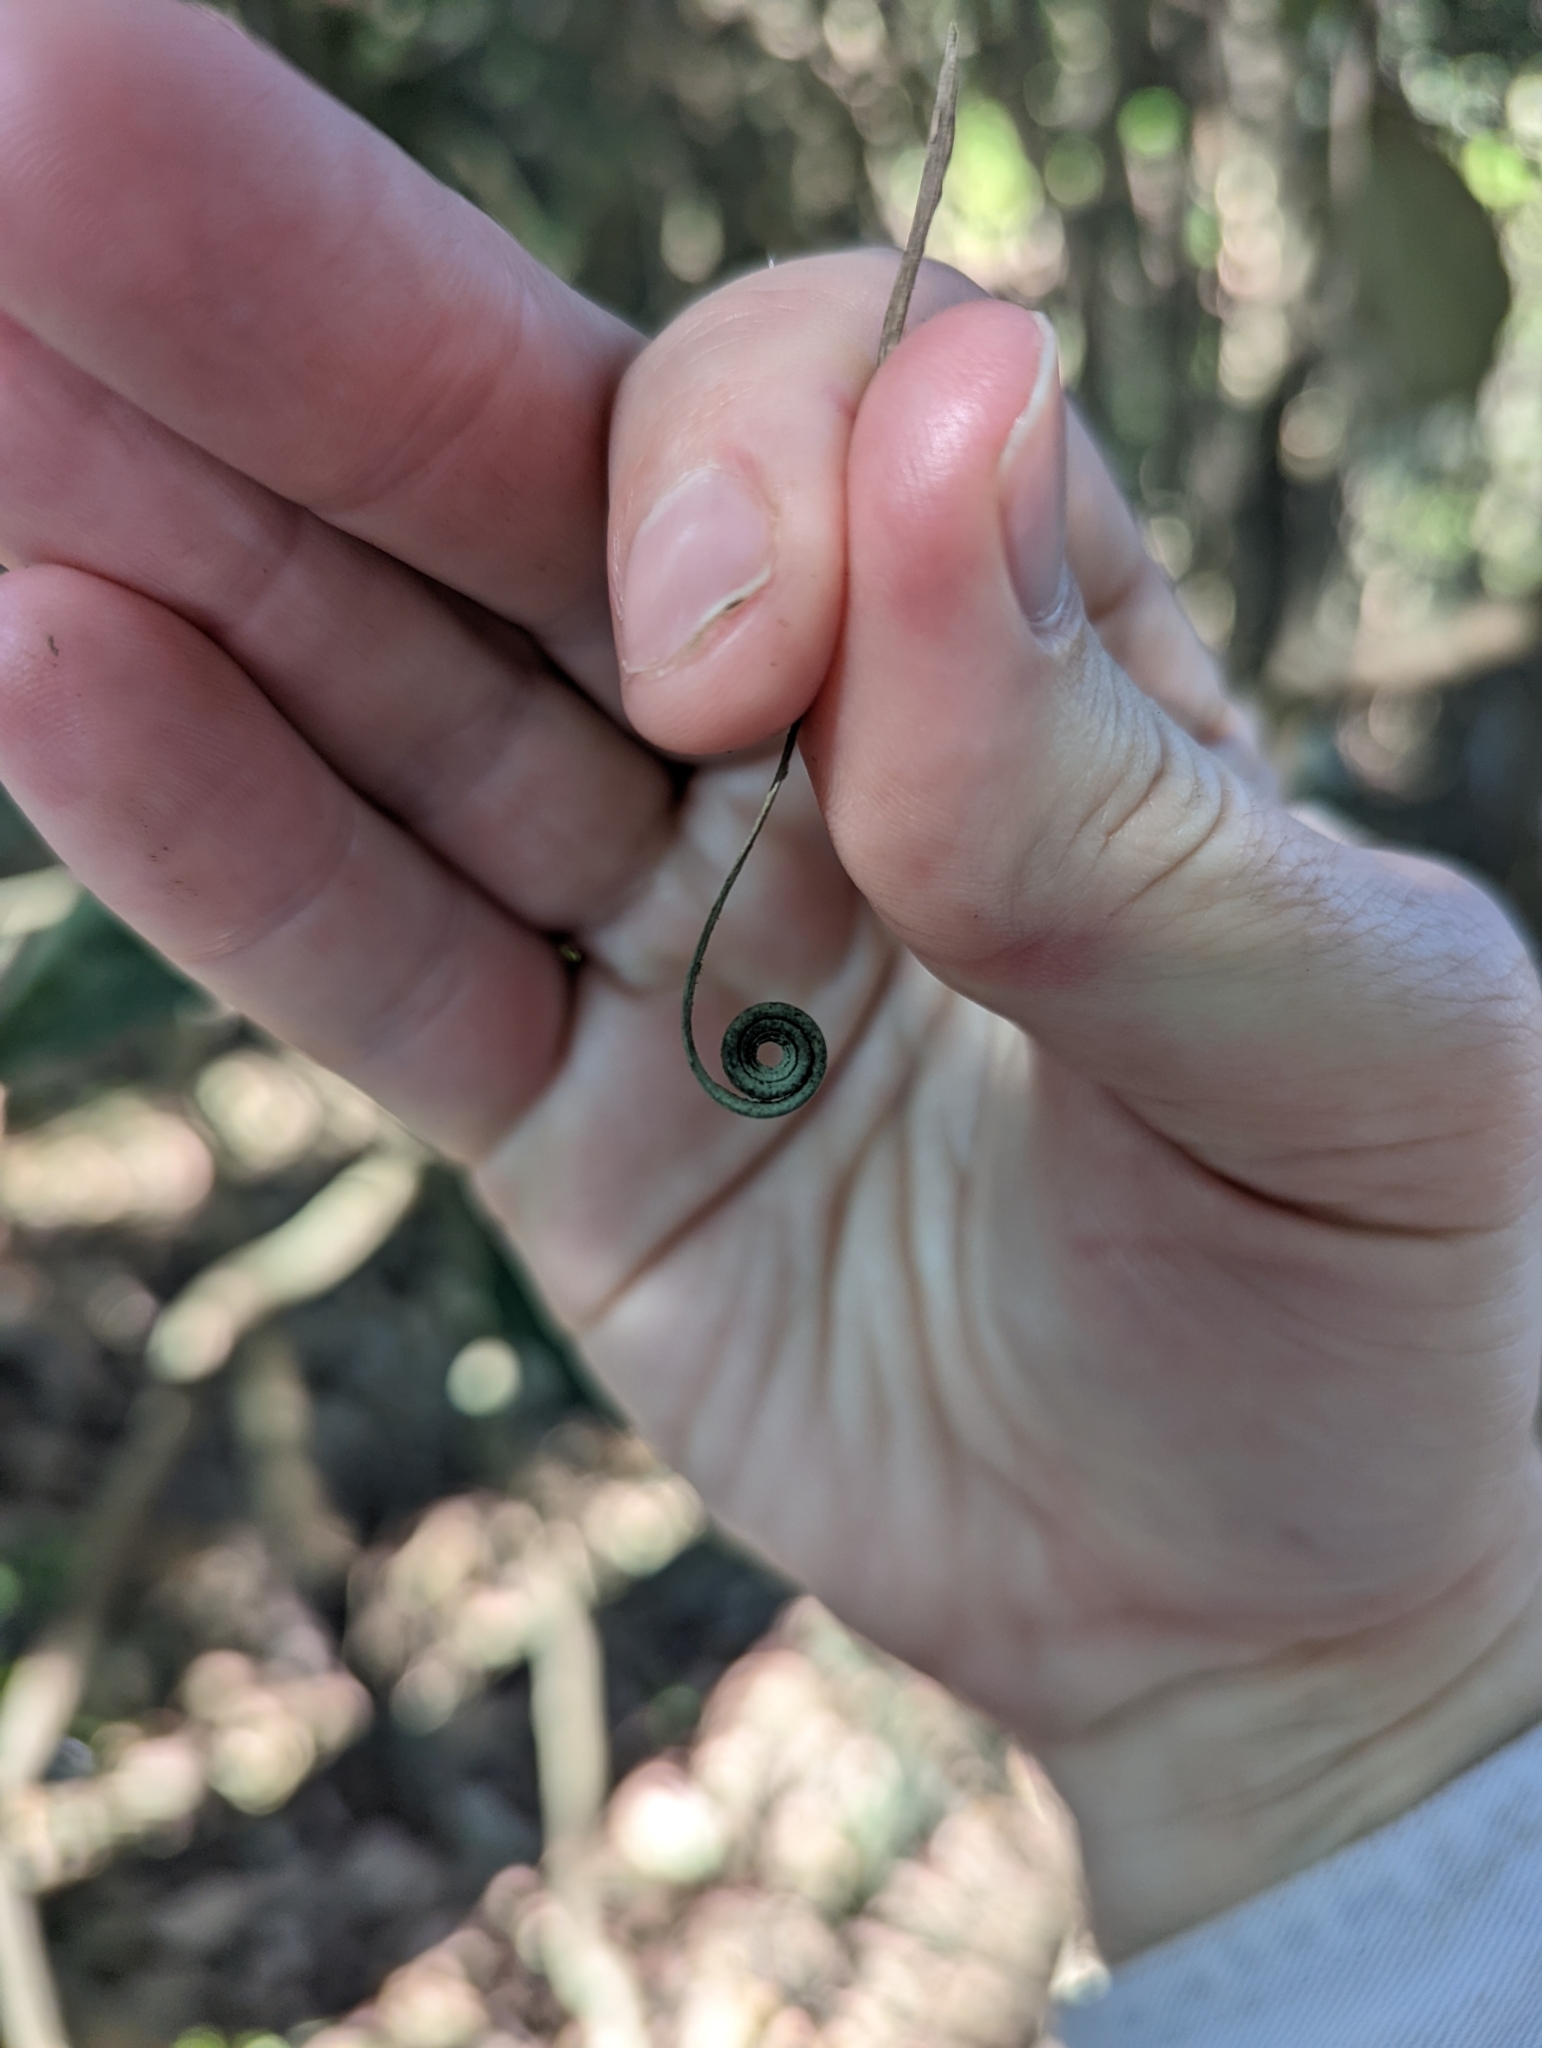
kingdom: Plantae
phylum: Tracheophyta
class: Liliopsida
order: Poales
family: Flagellariaceae
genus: Flagellaria
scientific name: Flagellaria indica
